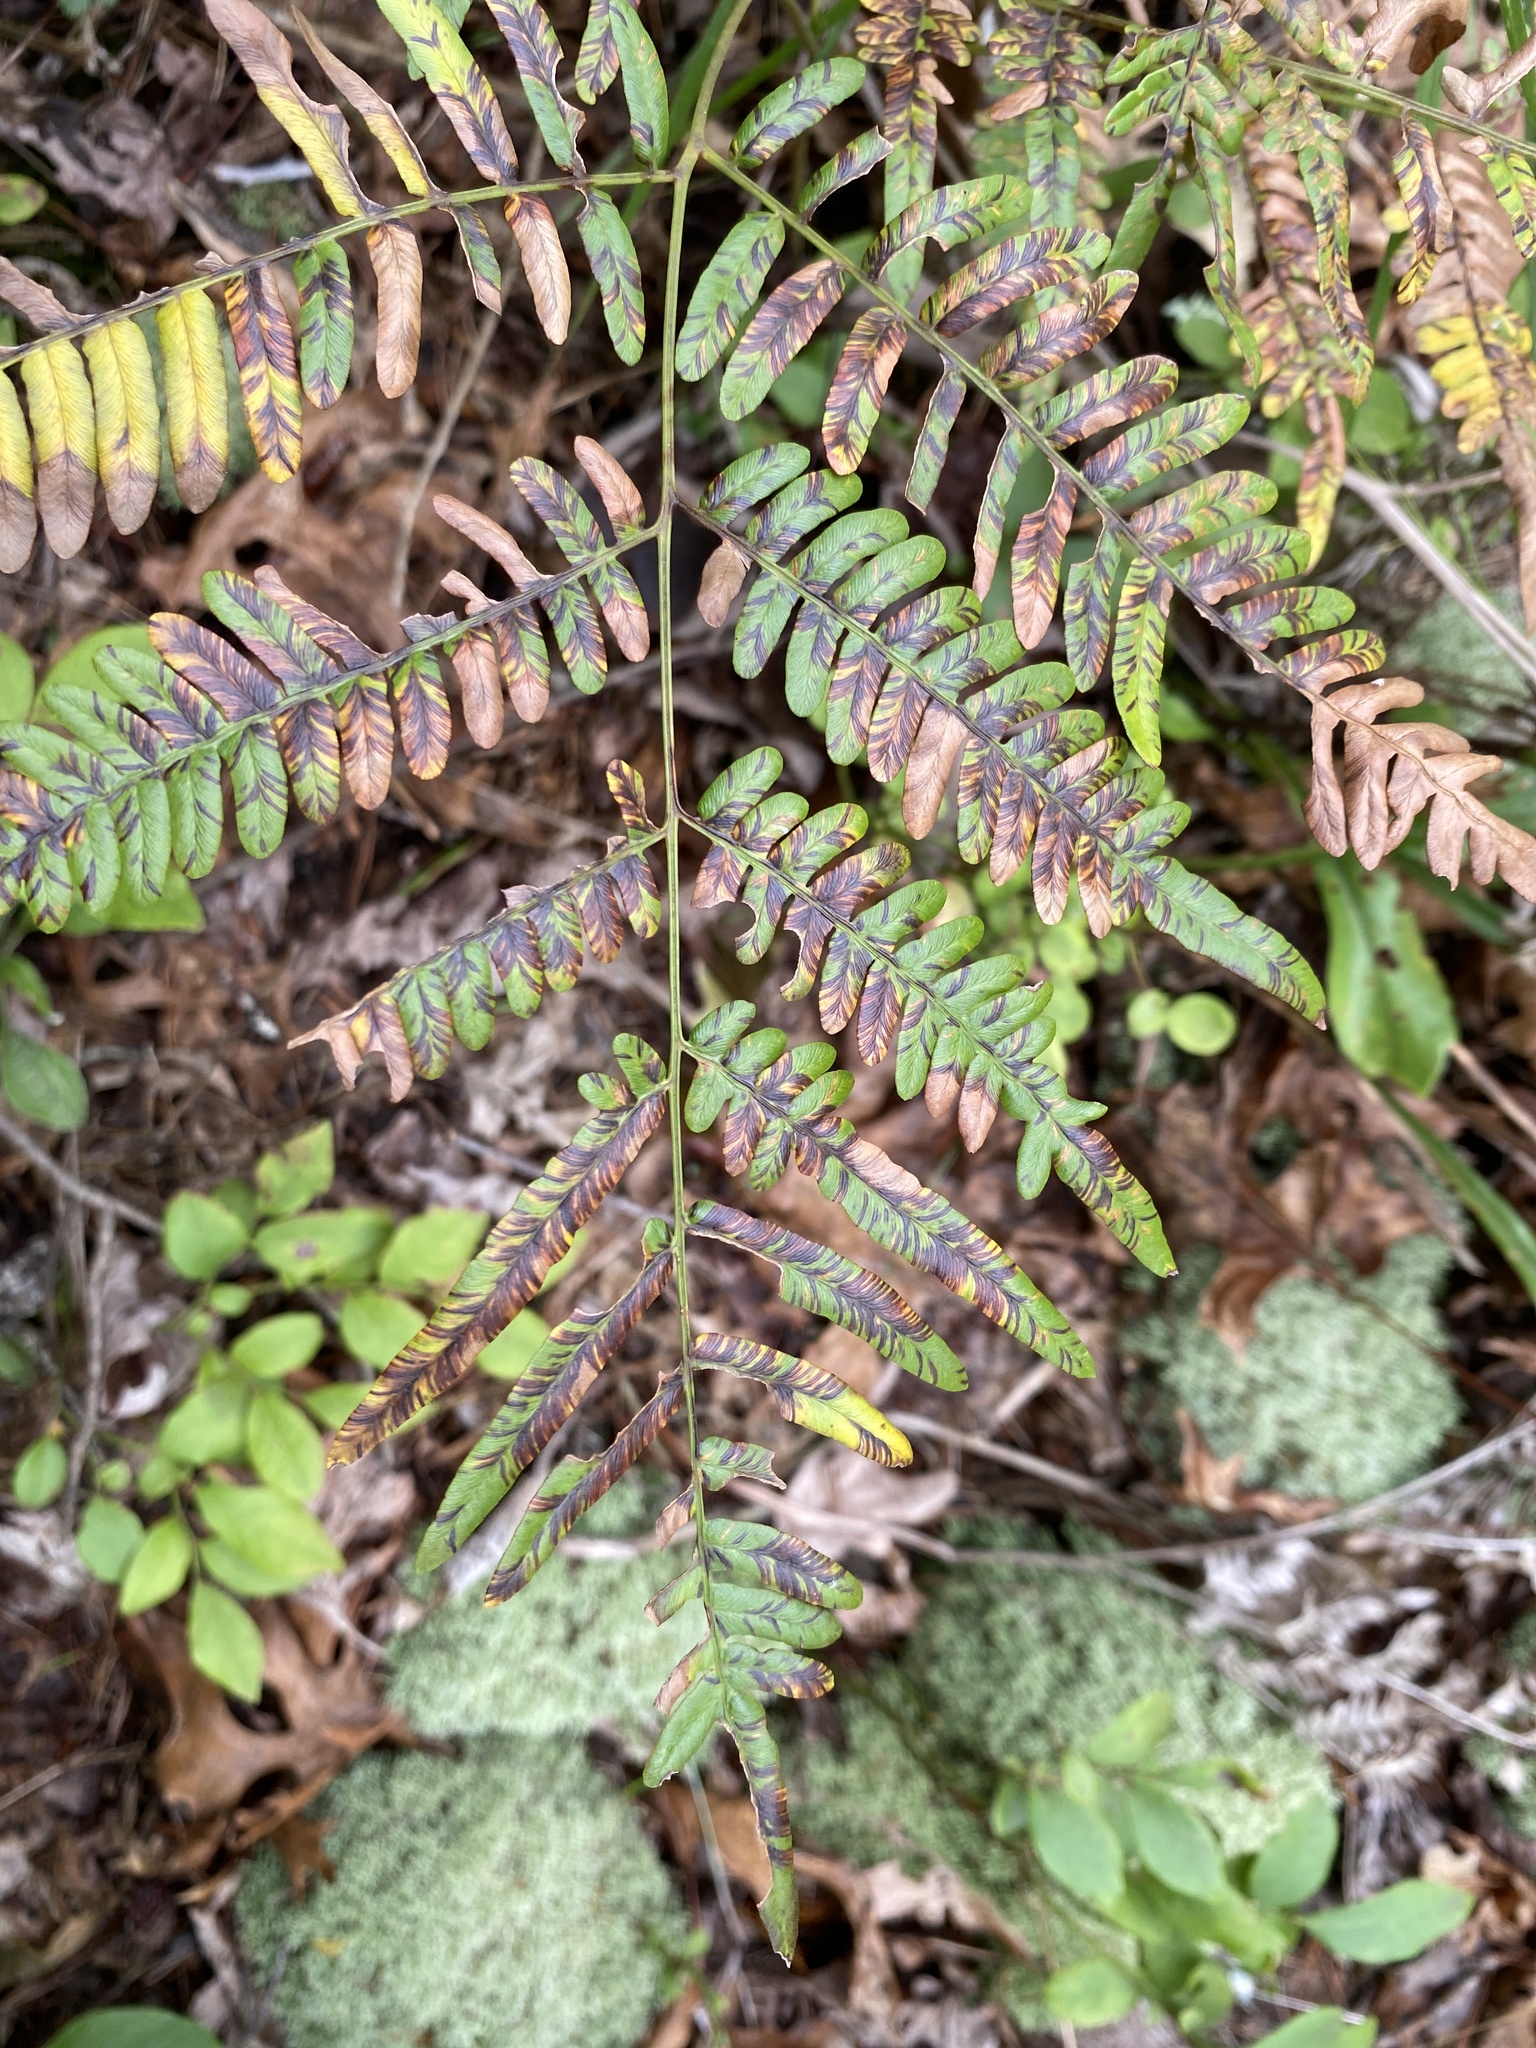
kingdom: Plantae
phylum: Tracheophyta
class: Polypodiopsida
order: Polypodiales
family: Dennstaedtiaceae
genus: Pteridium
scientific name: Pteridium
